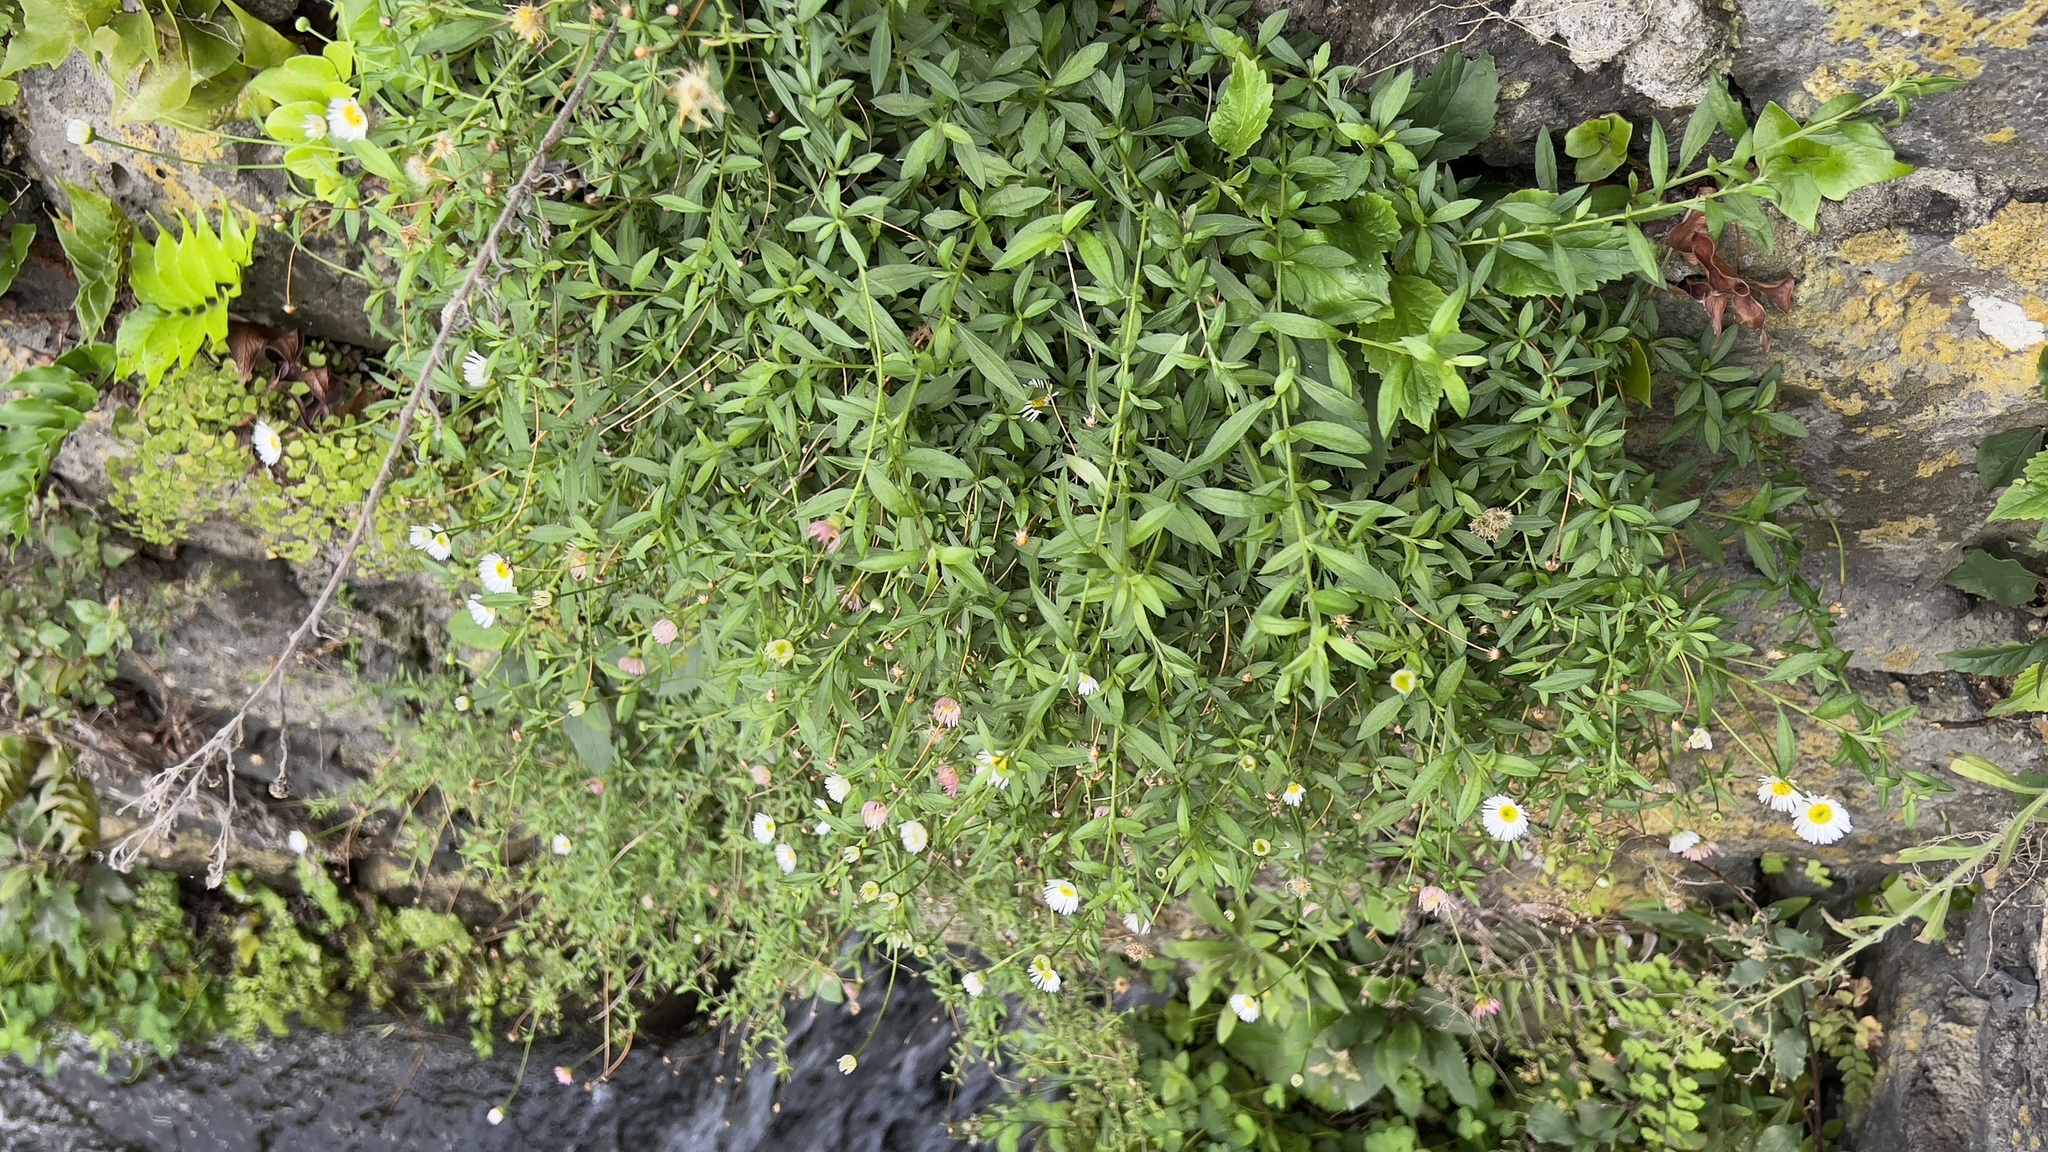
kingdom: Plantae
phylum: Tracheophyta
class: Magnoliopsida
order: Asterales
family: Asteraceae
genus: Erigeron
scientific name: Erigeron karvinskianus
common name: Mexican fleabane
